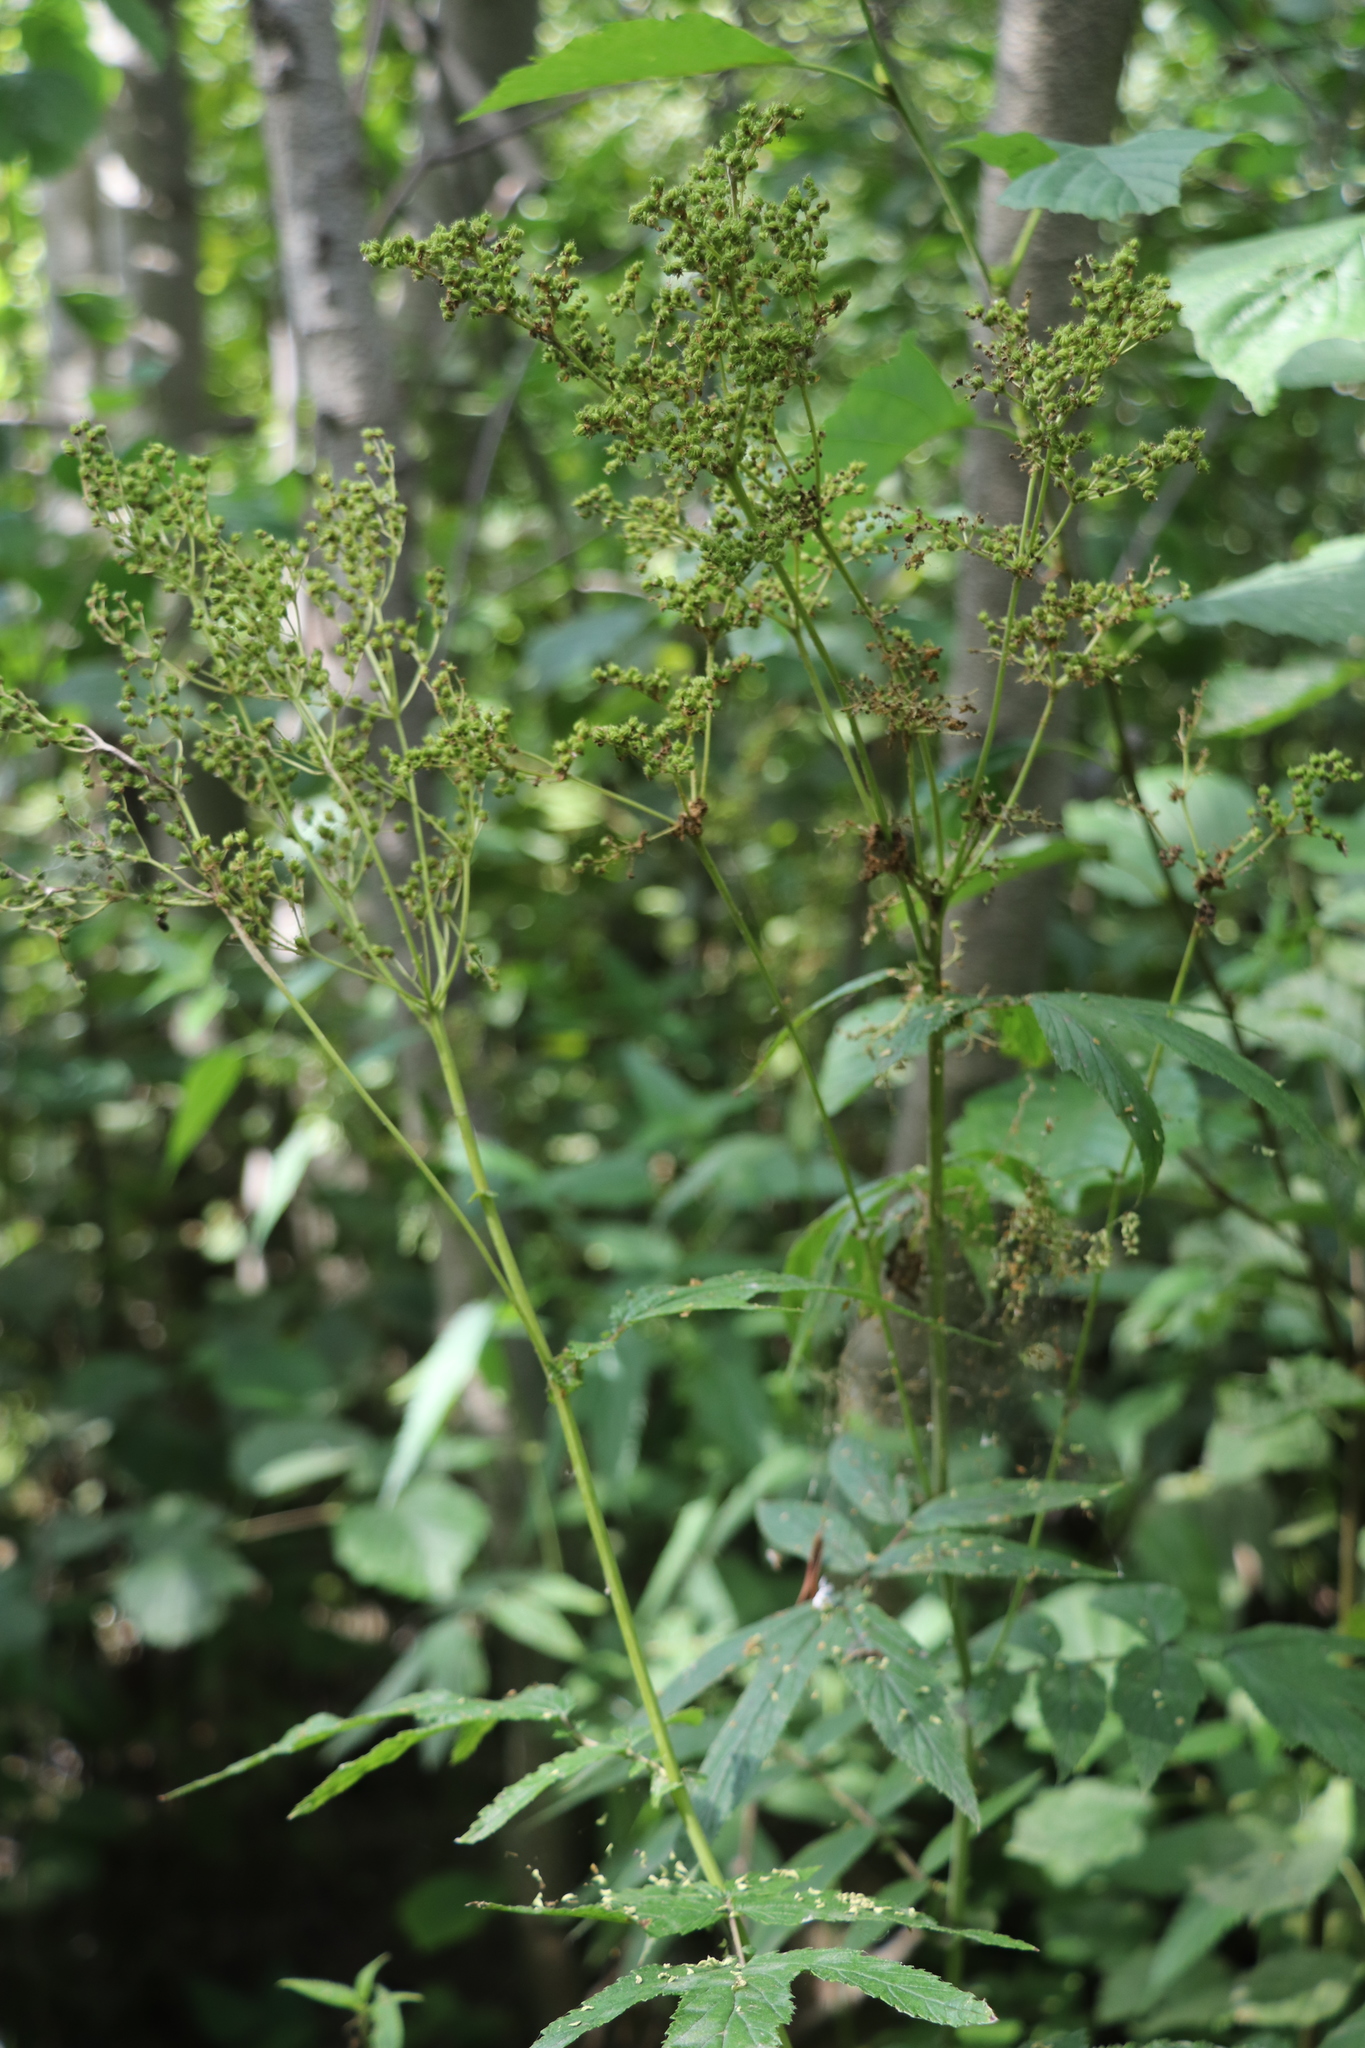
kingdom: Plantae
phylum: Tracheophyta
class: Magnoliopsida
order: Rosales
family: Rosaceae
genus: Filipendula
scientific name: Filipendula ulmaria
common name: Meadowsweet
